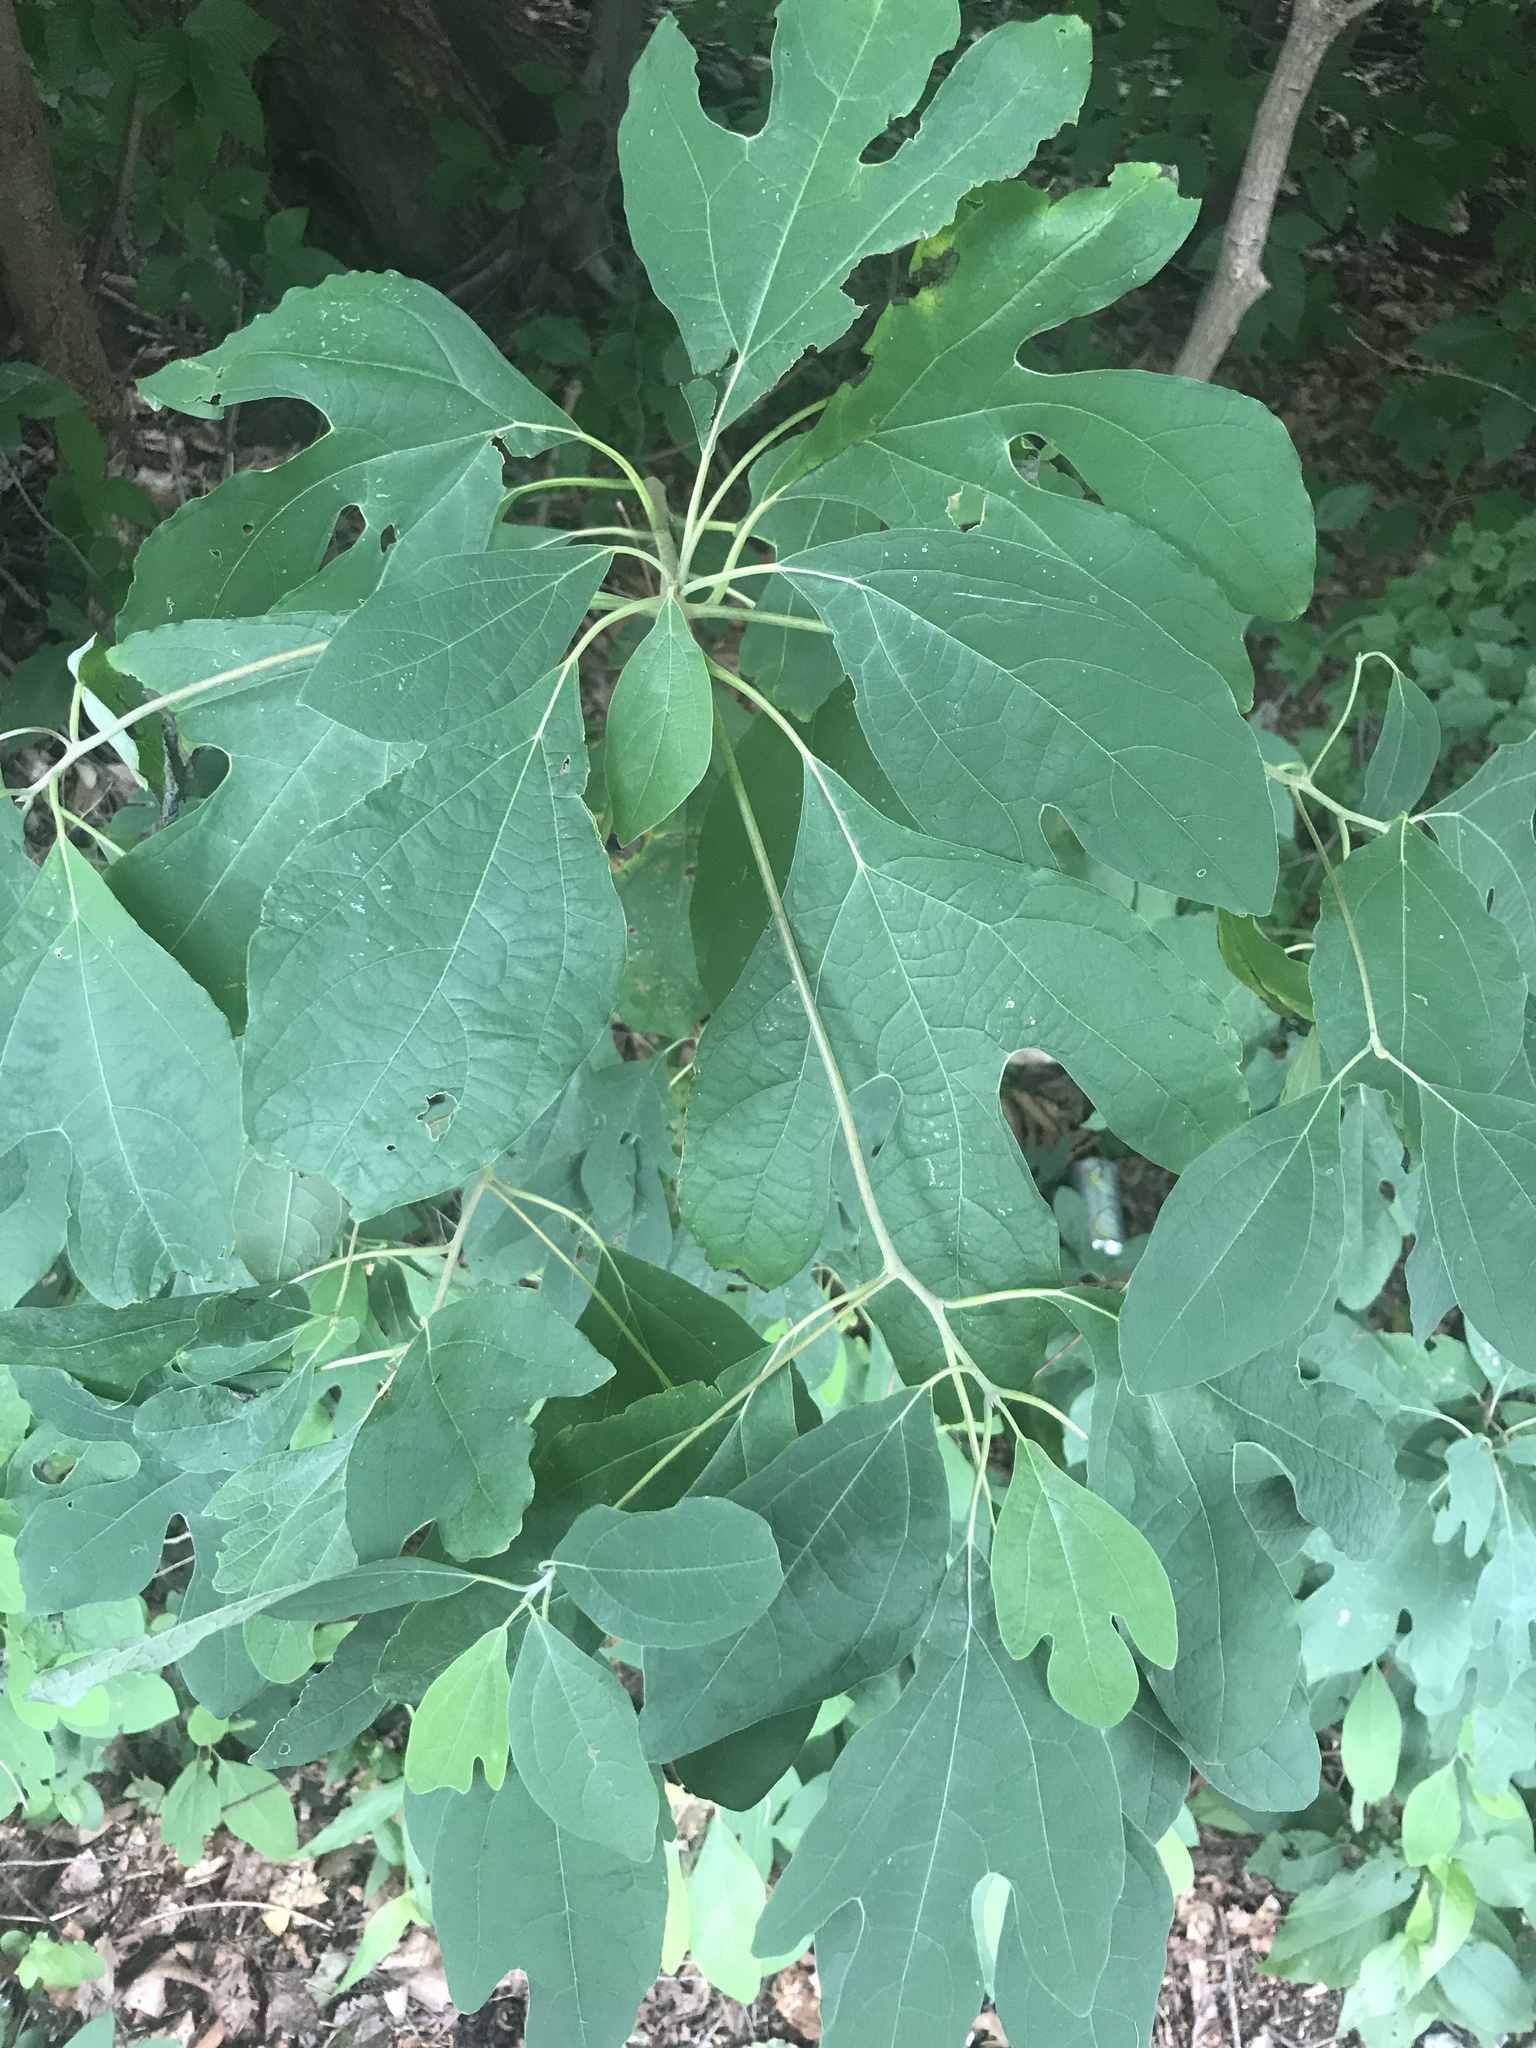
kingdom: Plantae
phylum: Tracheophyta
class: Magnoliopsida
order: Laurales
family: Lauraceae
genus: Sassafras
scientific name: Sassafras albidum
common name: Sassafras
